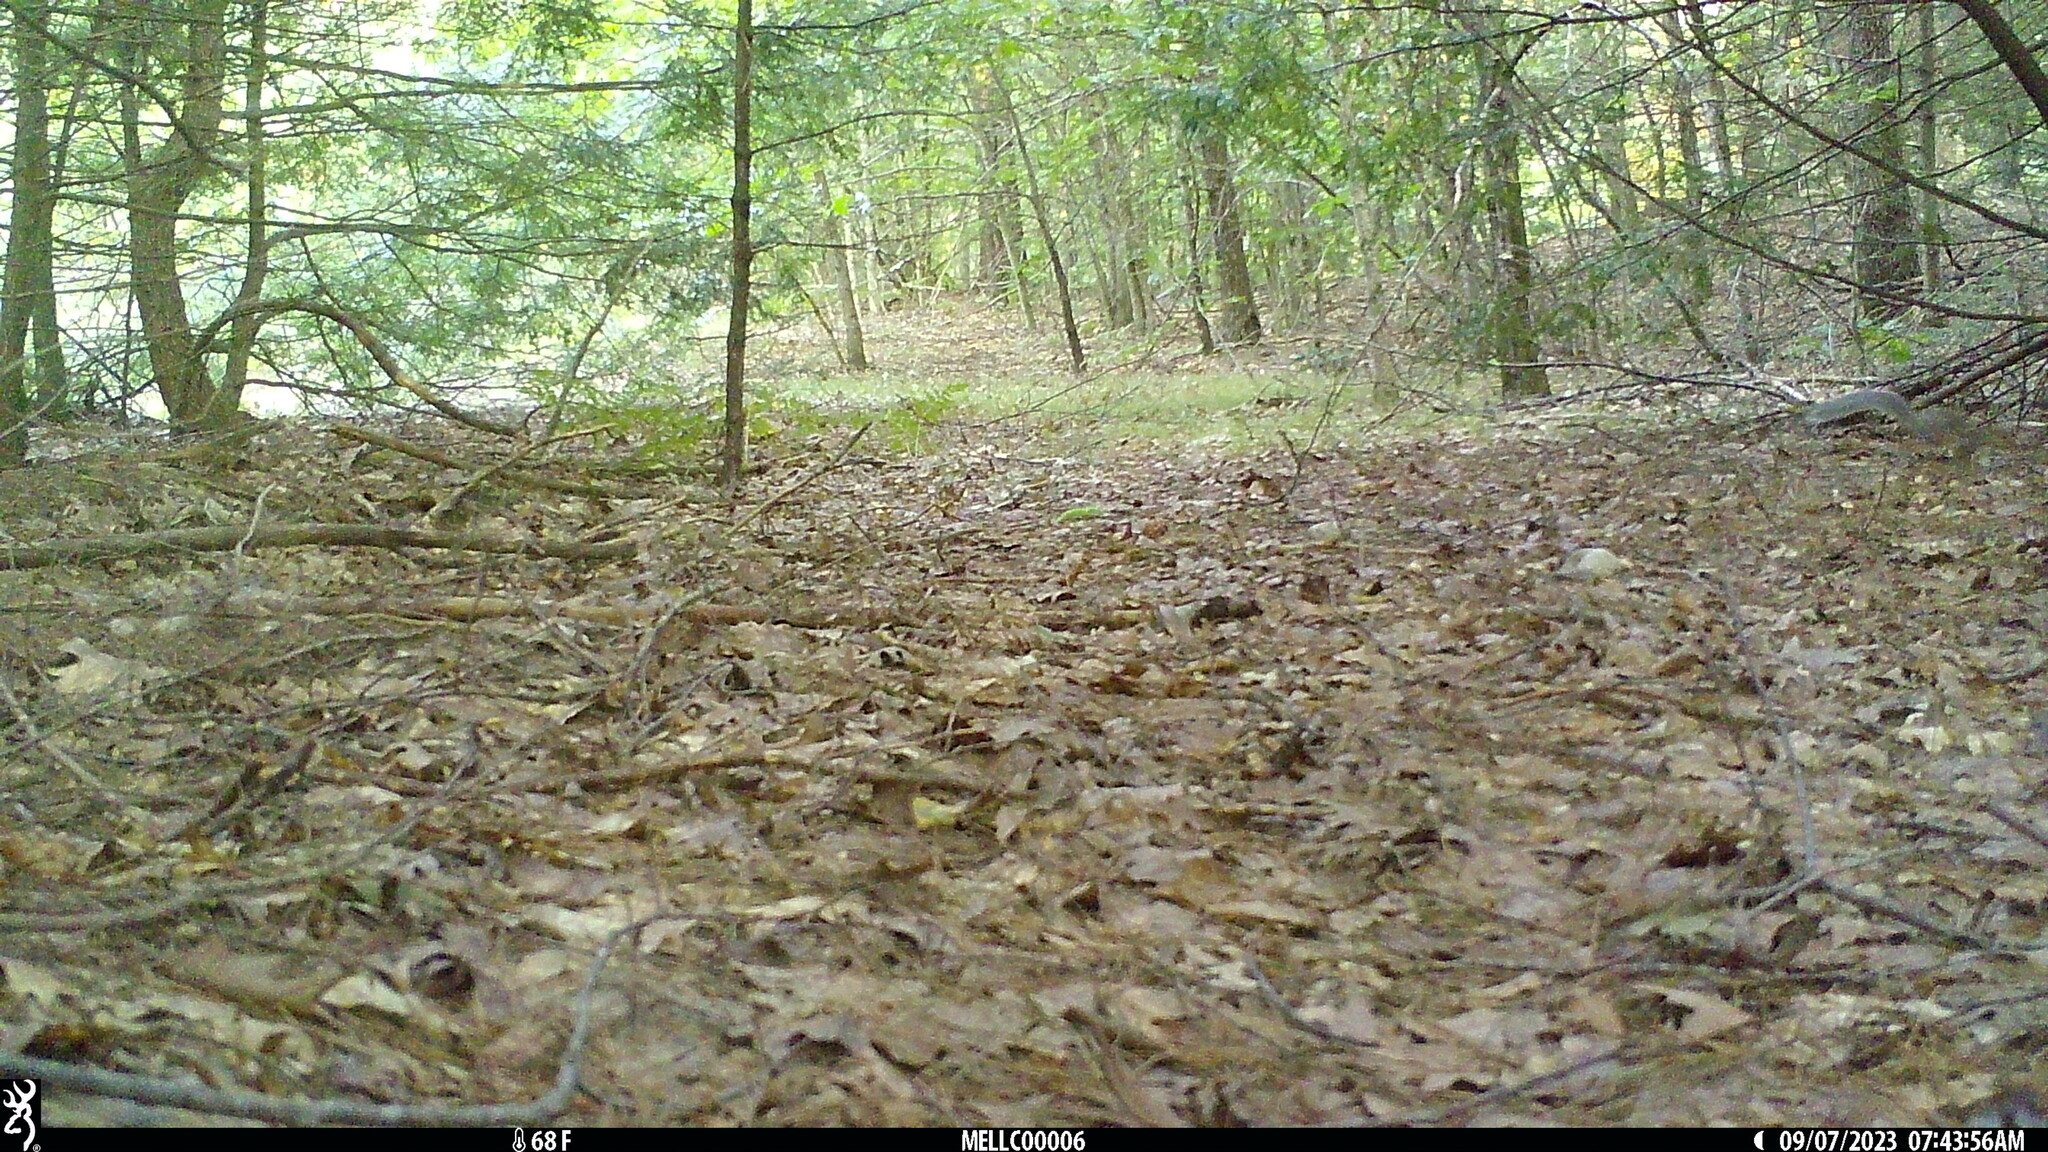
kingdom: Animalia
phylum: Chordata
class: Mammalia
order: Rodentia
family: Sciuridae
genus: Sciurus
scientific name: Sciurus carolinensis
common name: Eastern gray squirrel
